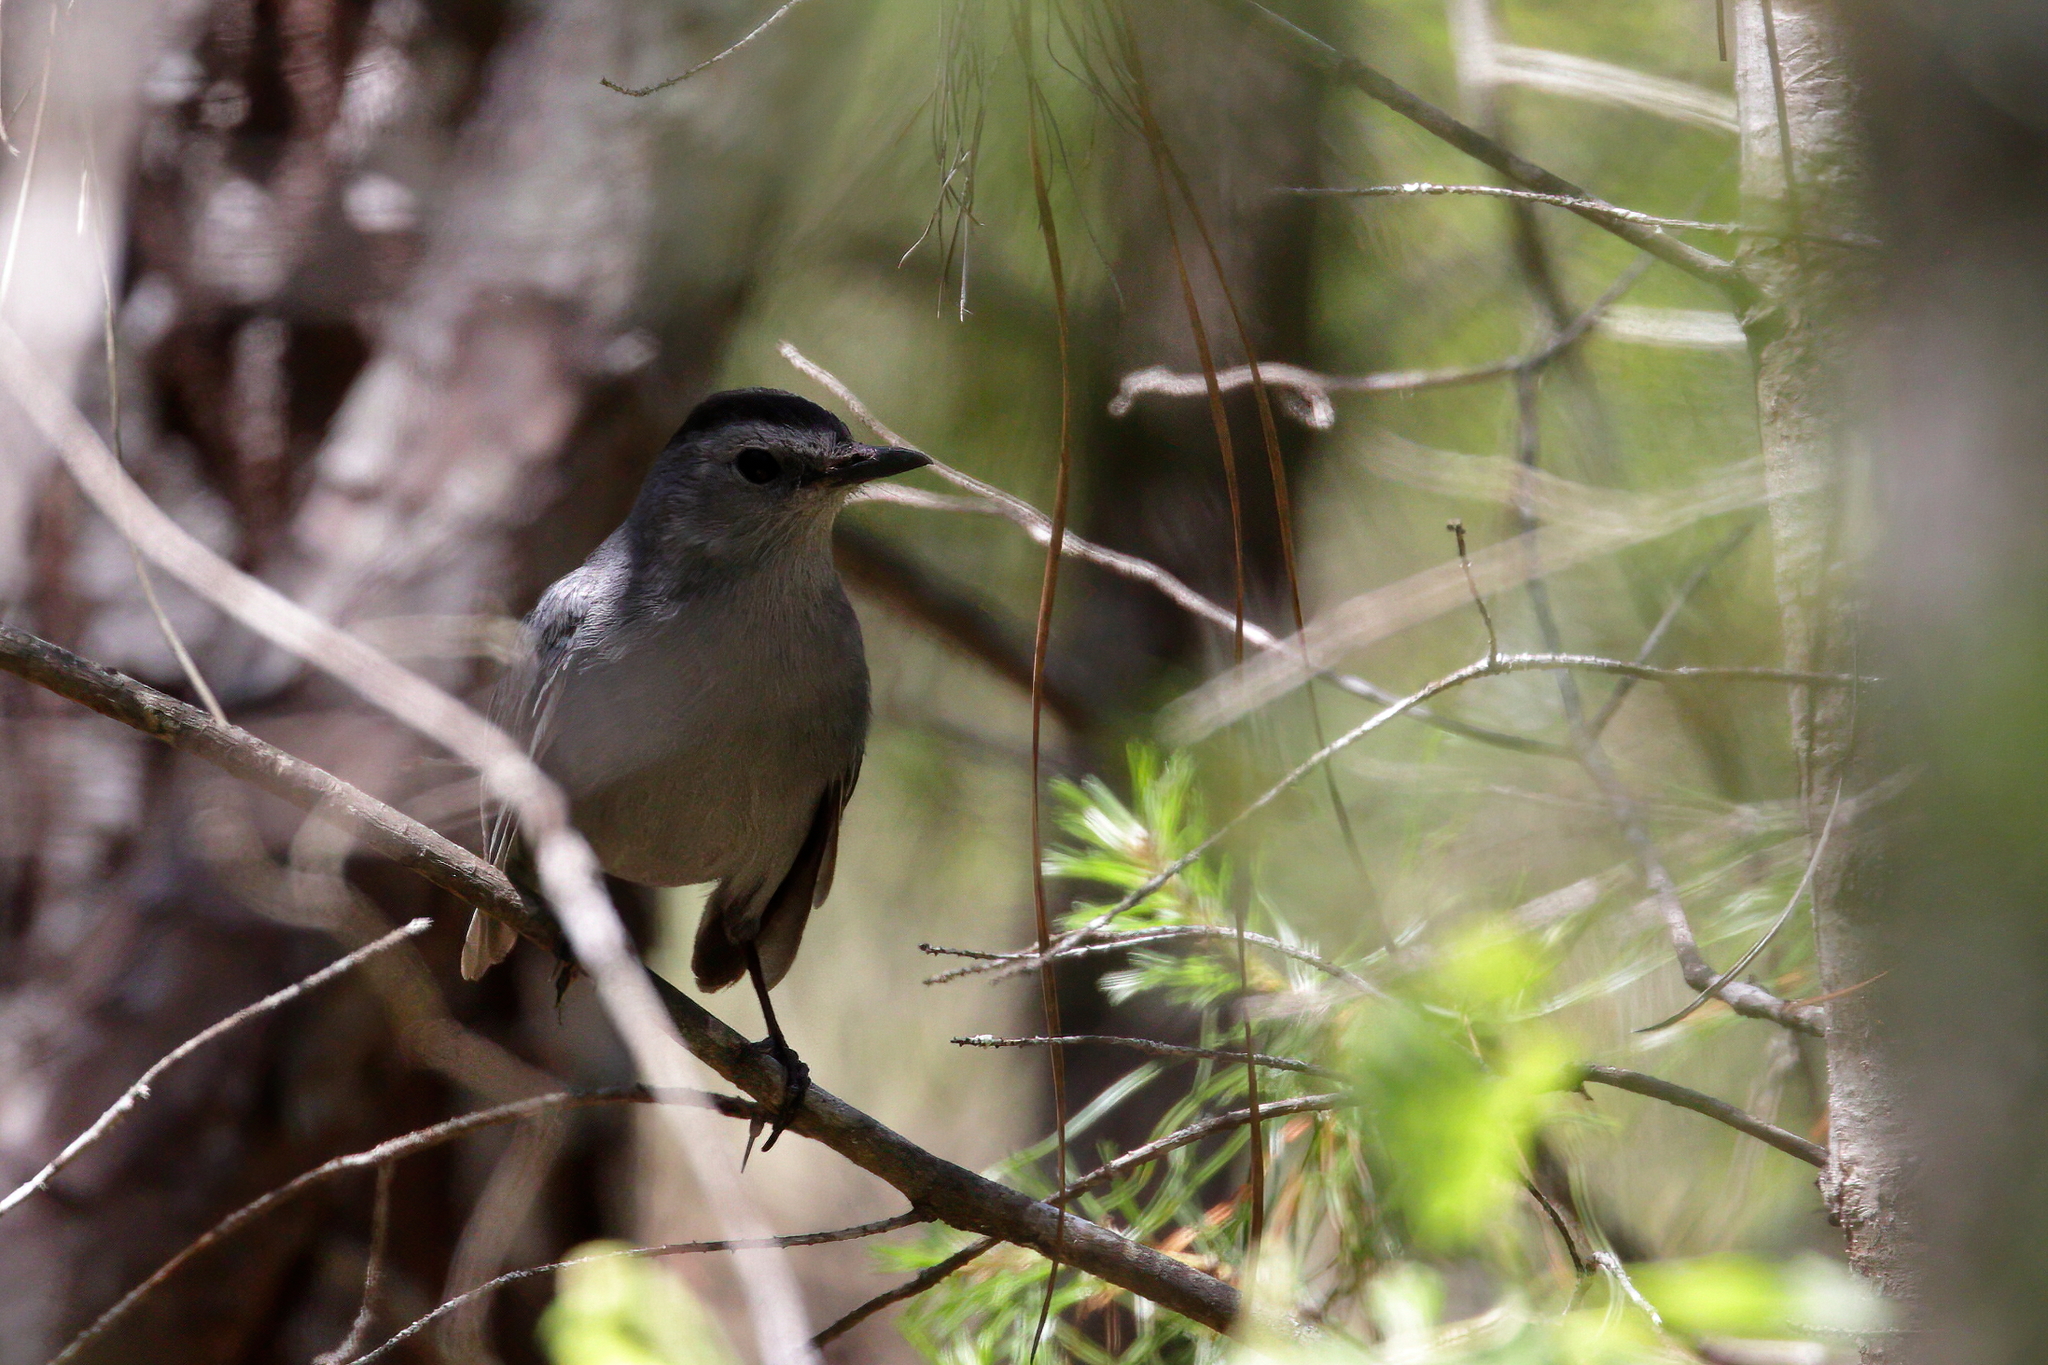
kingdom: Animalia
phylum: Chordata
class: Aves
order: Passeriformes
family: Mimidae
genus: Dumetella
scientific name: Dumetella carolinensis
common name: Gray catbird
